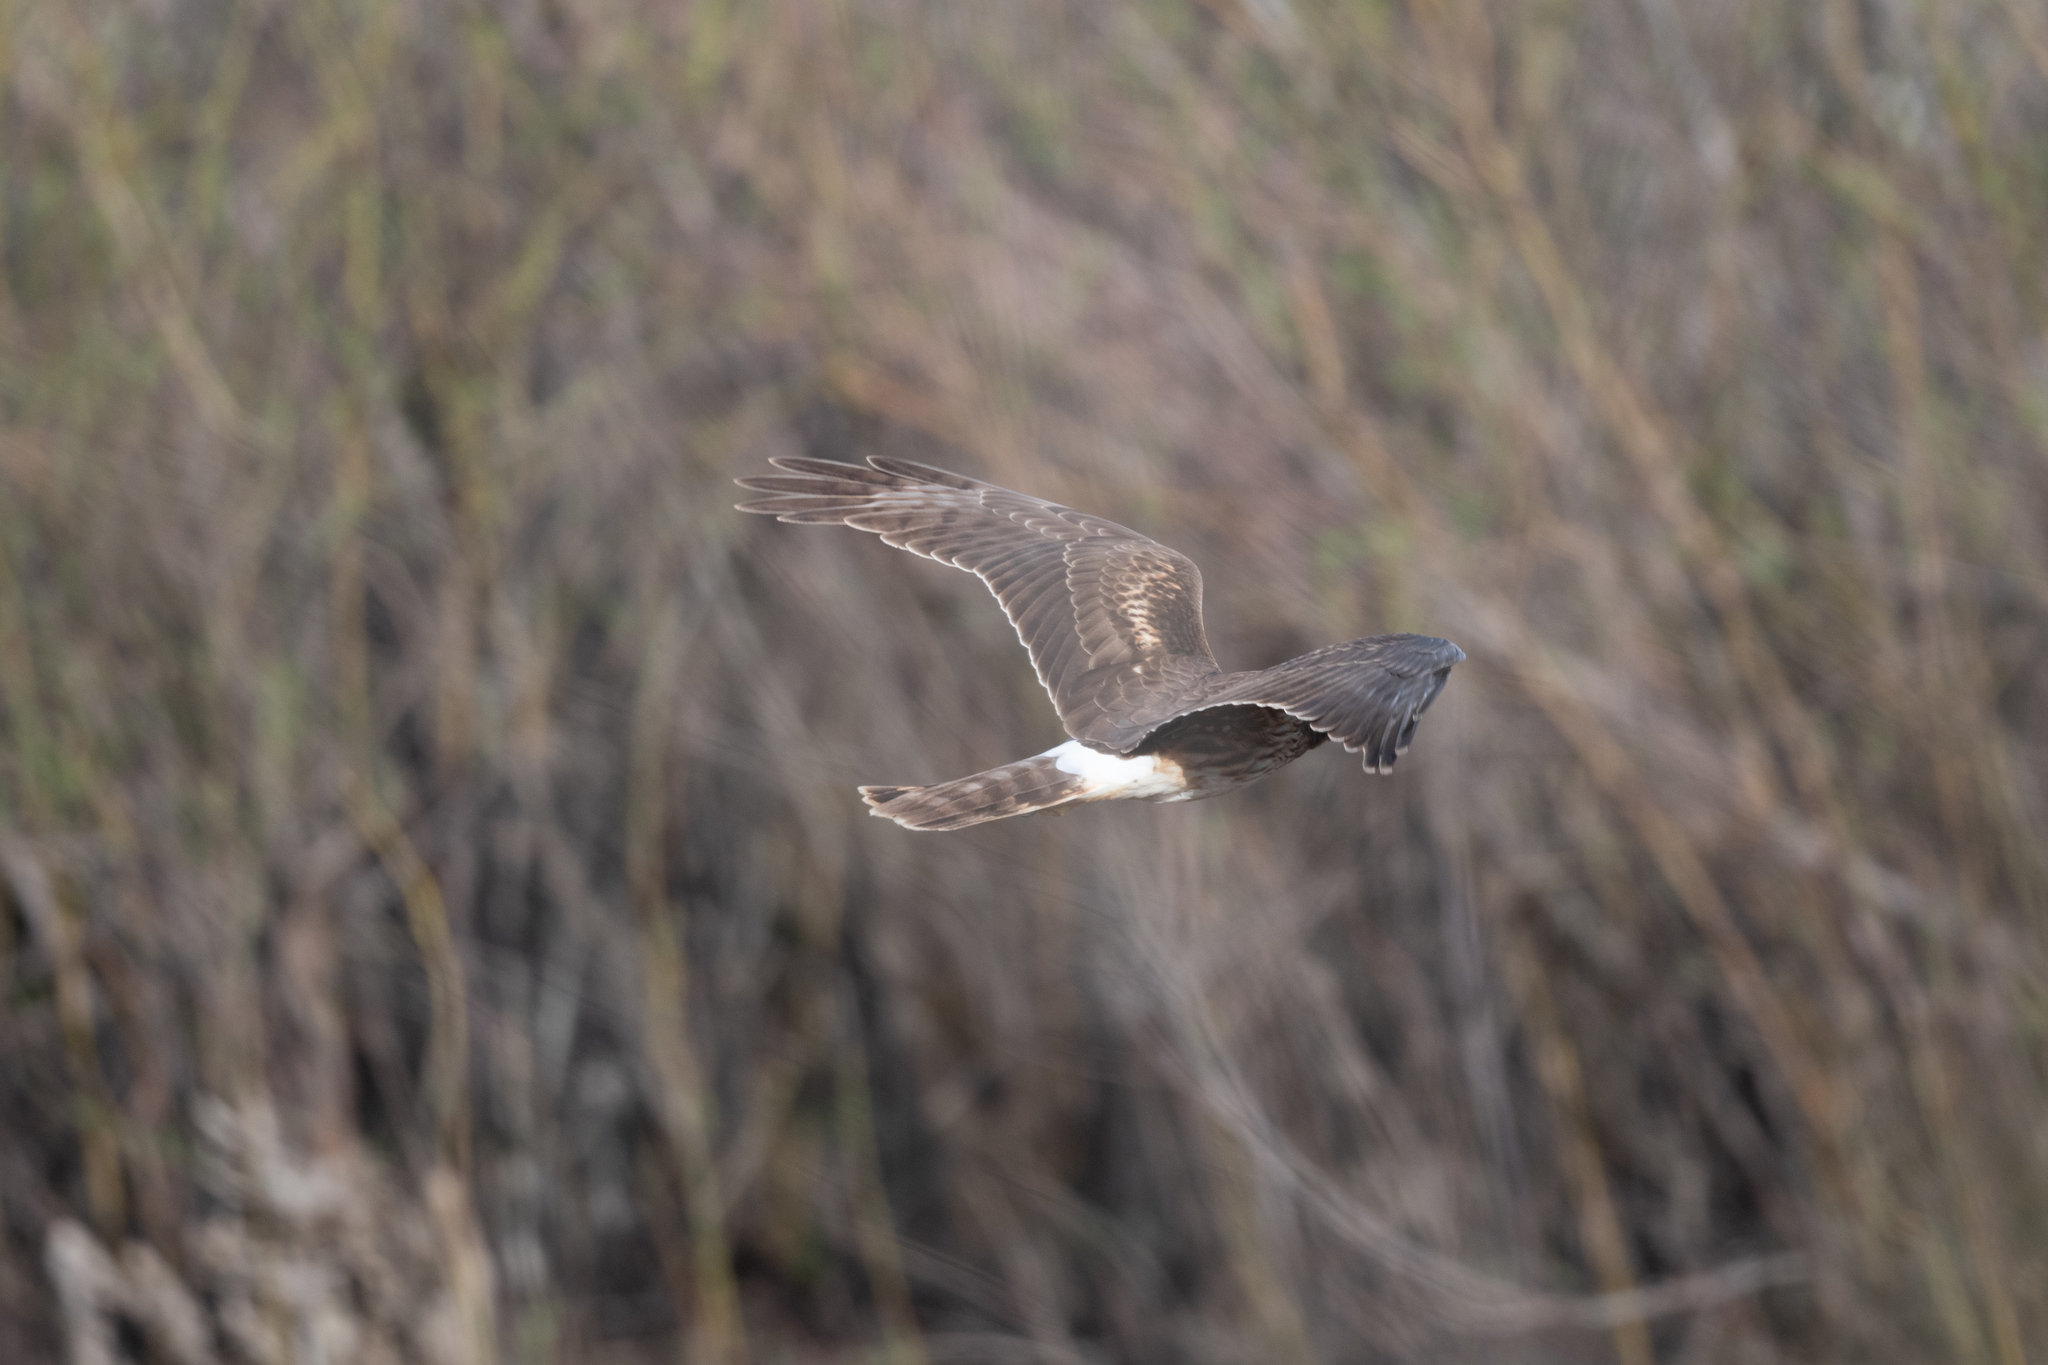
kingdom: Animalia
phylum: Chordata
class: Aves
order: Accipitriformes
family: Accipitridae
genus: Circus
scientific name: Circus cyaneus
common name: Hen harrier
